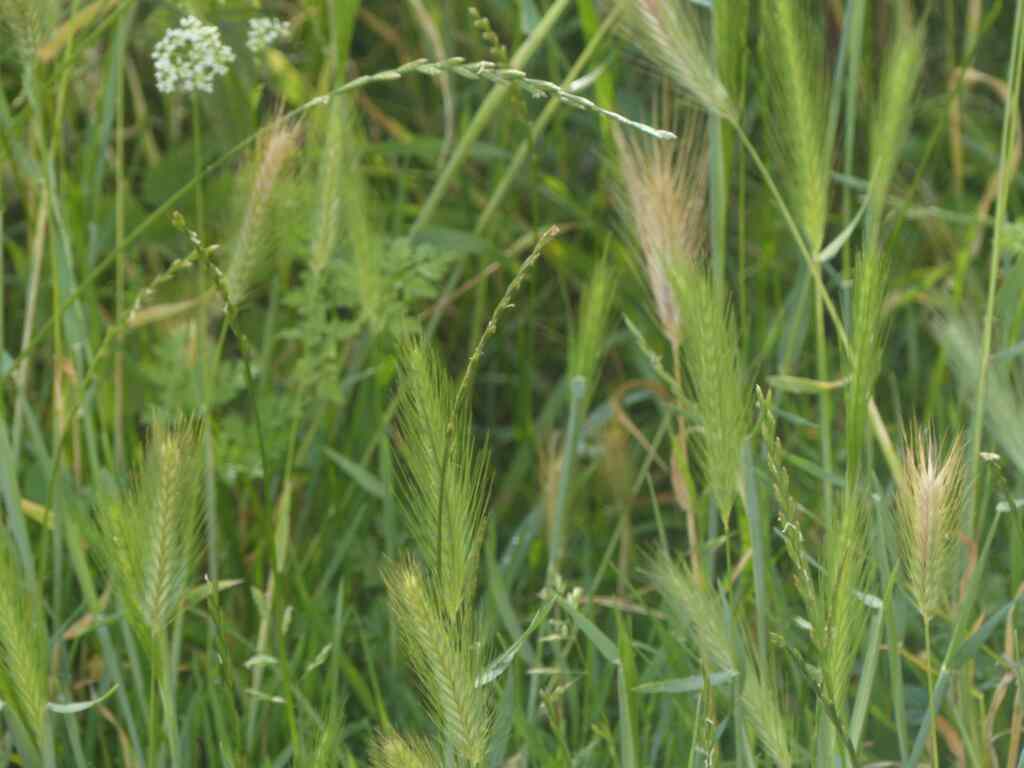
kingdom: Plantae
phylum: Tracheophyta
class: Liliopsida
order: Poales
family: Poaceae
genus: Hordeum
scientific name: Hordeum murinum
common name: Wall barley
